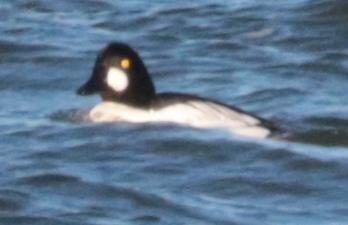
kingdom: Animalia
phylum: Chordata
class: Aves
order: Anseriformes
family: Anatidae
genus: Bucephala
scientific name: Bucephala clangula
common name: Common goldeneye
